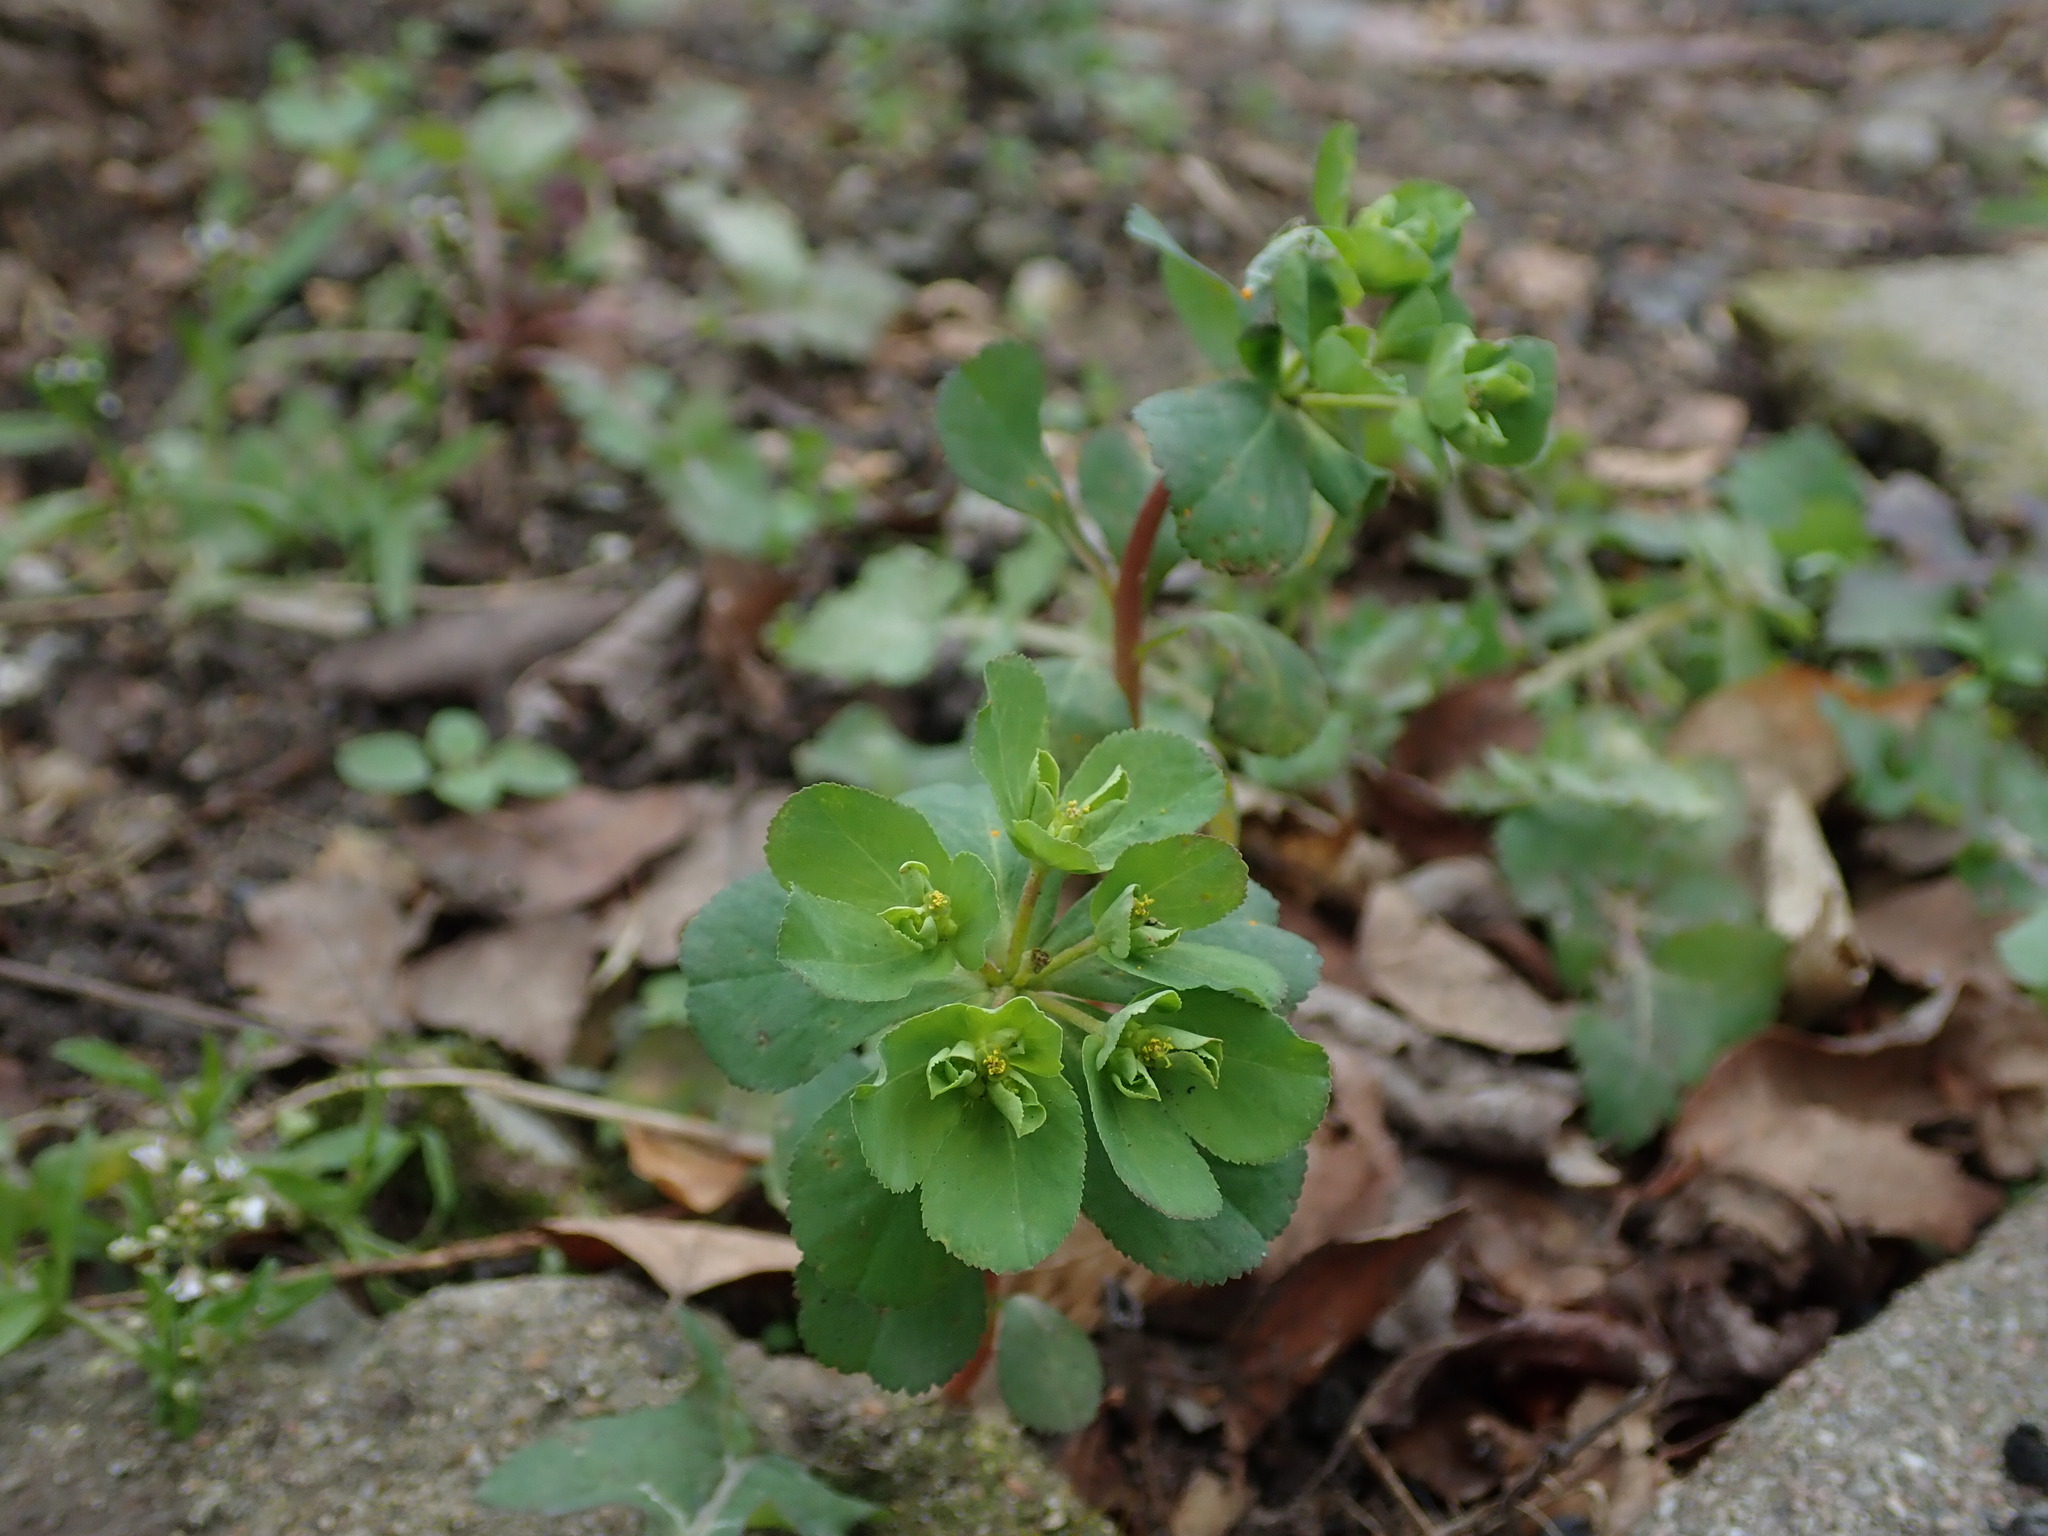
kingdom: Plantae
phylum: Tracheophyta
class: Magnoliopsida
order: Malpighiales
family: Euphorbiaceae
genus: Euphorbia
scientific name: Euphorbia helioscopia
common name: Sun spurge
